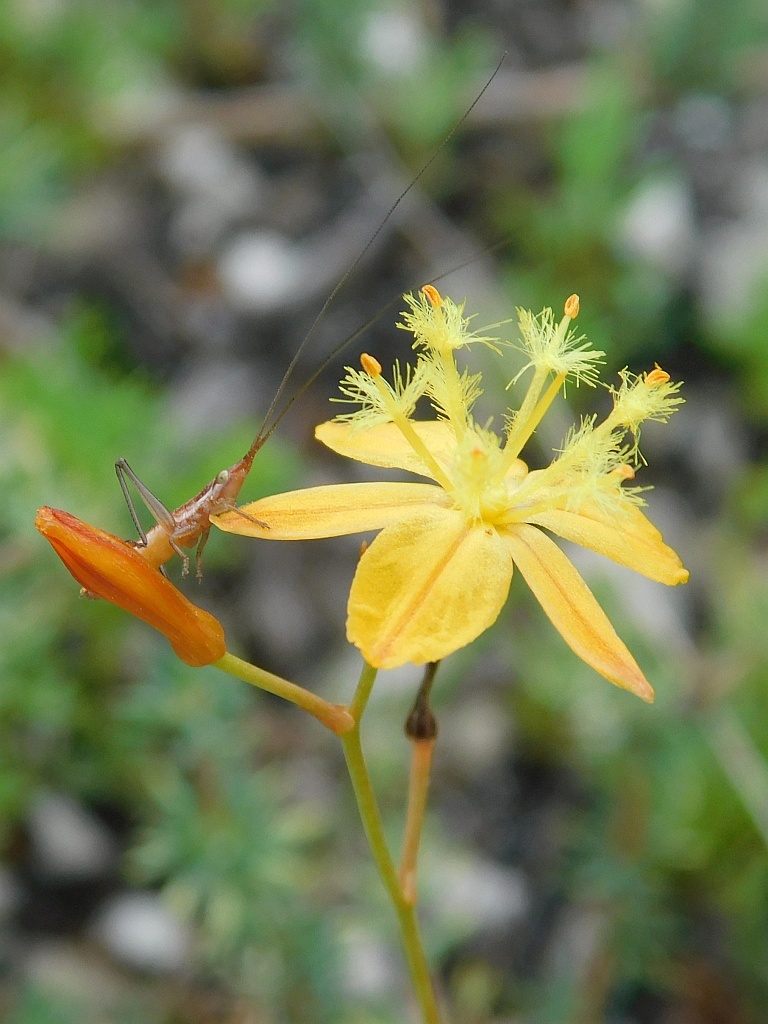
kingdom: Plantae
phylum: Tracheophyta
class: Liliopsida
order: Asparagales
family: Asphodelaceae
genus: Bulbine
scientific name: Bulbine favosa
